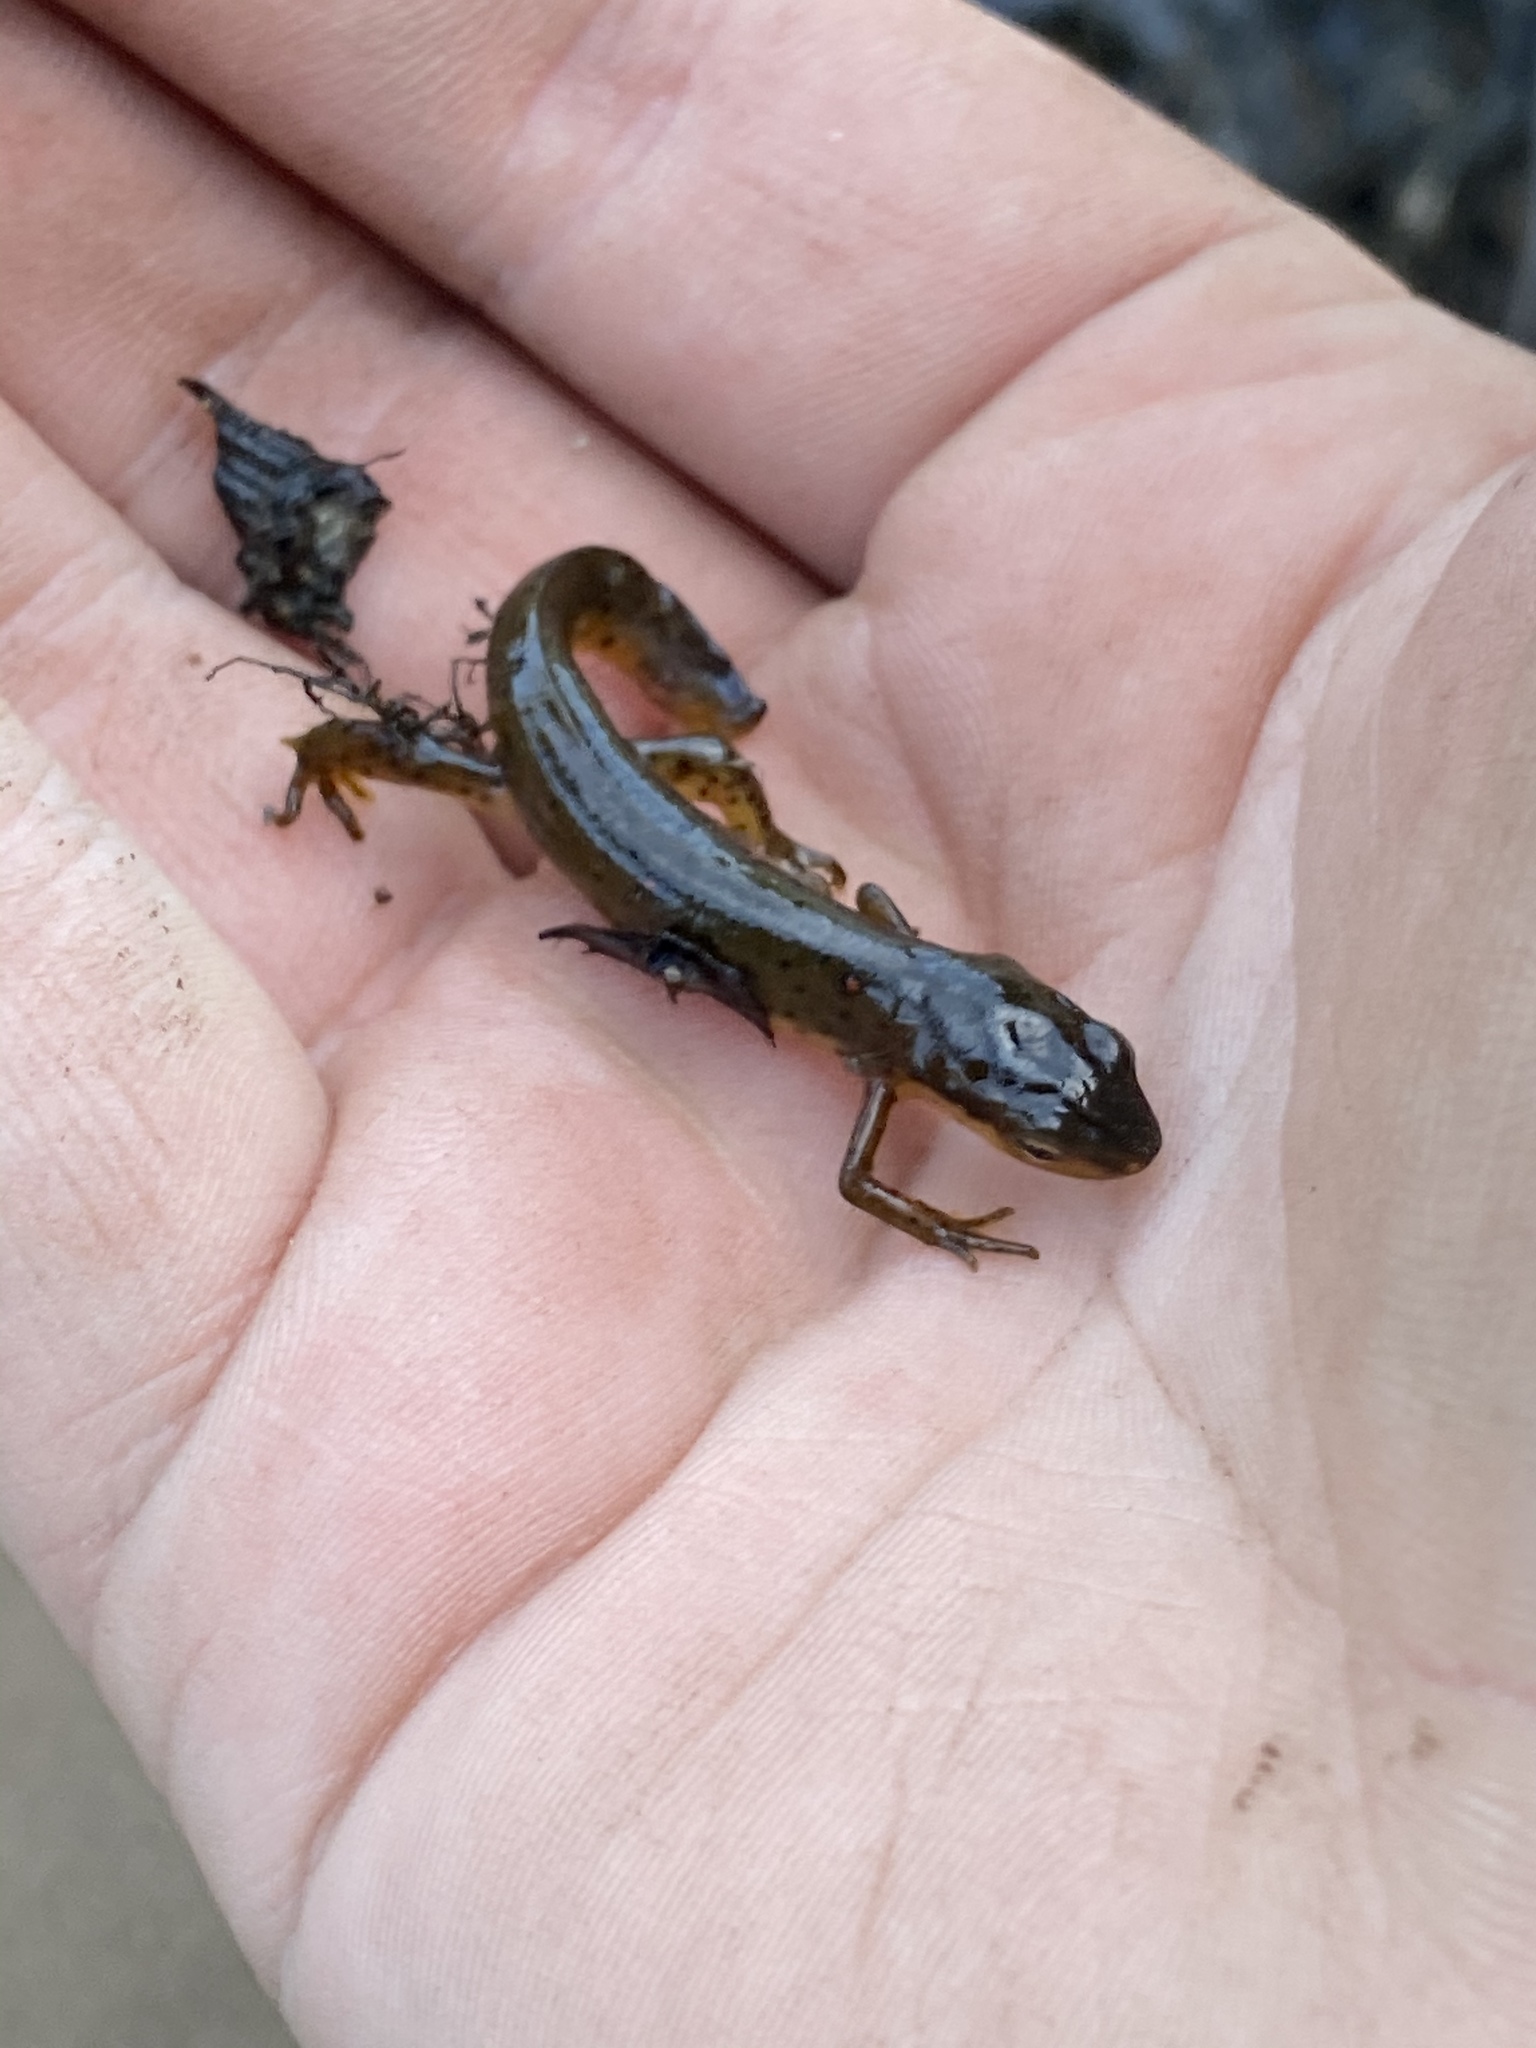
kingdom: Animalia
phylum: Chordata
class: Amphibia
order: Caudata
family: Salamandridae
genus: Notophthalmus
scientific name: Notophthalmus viridescens
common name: Eastern newt
